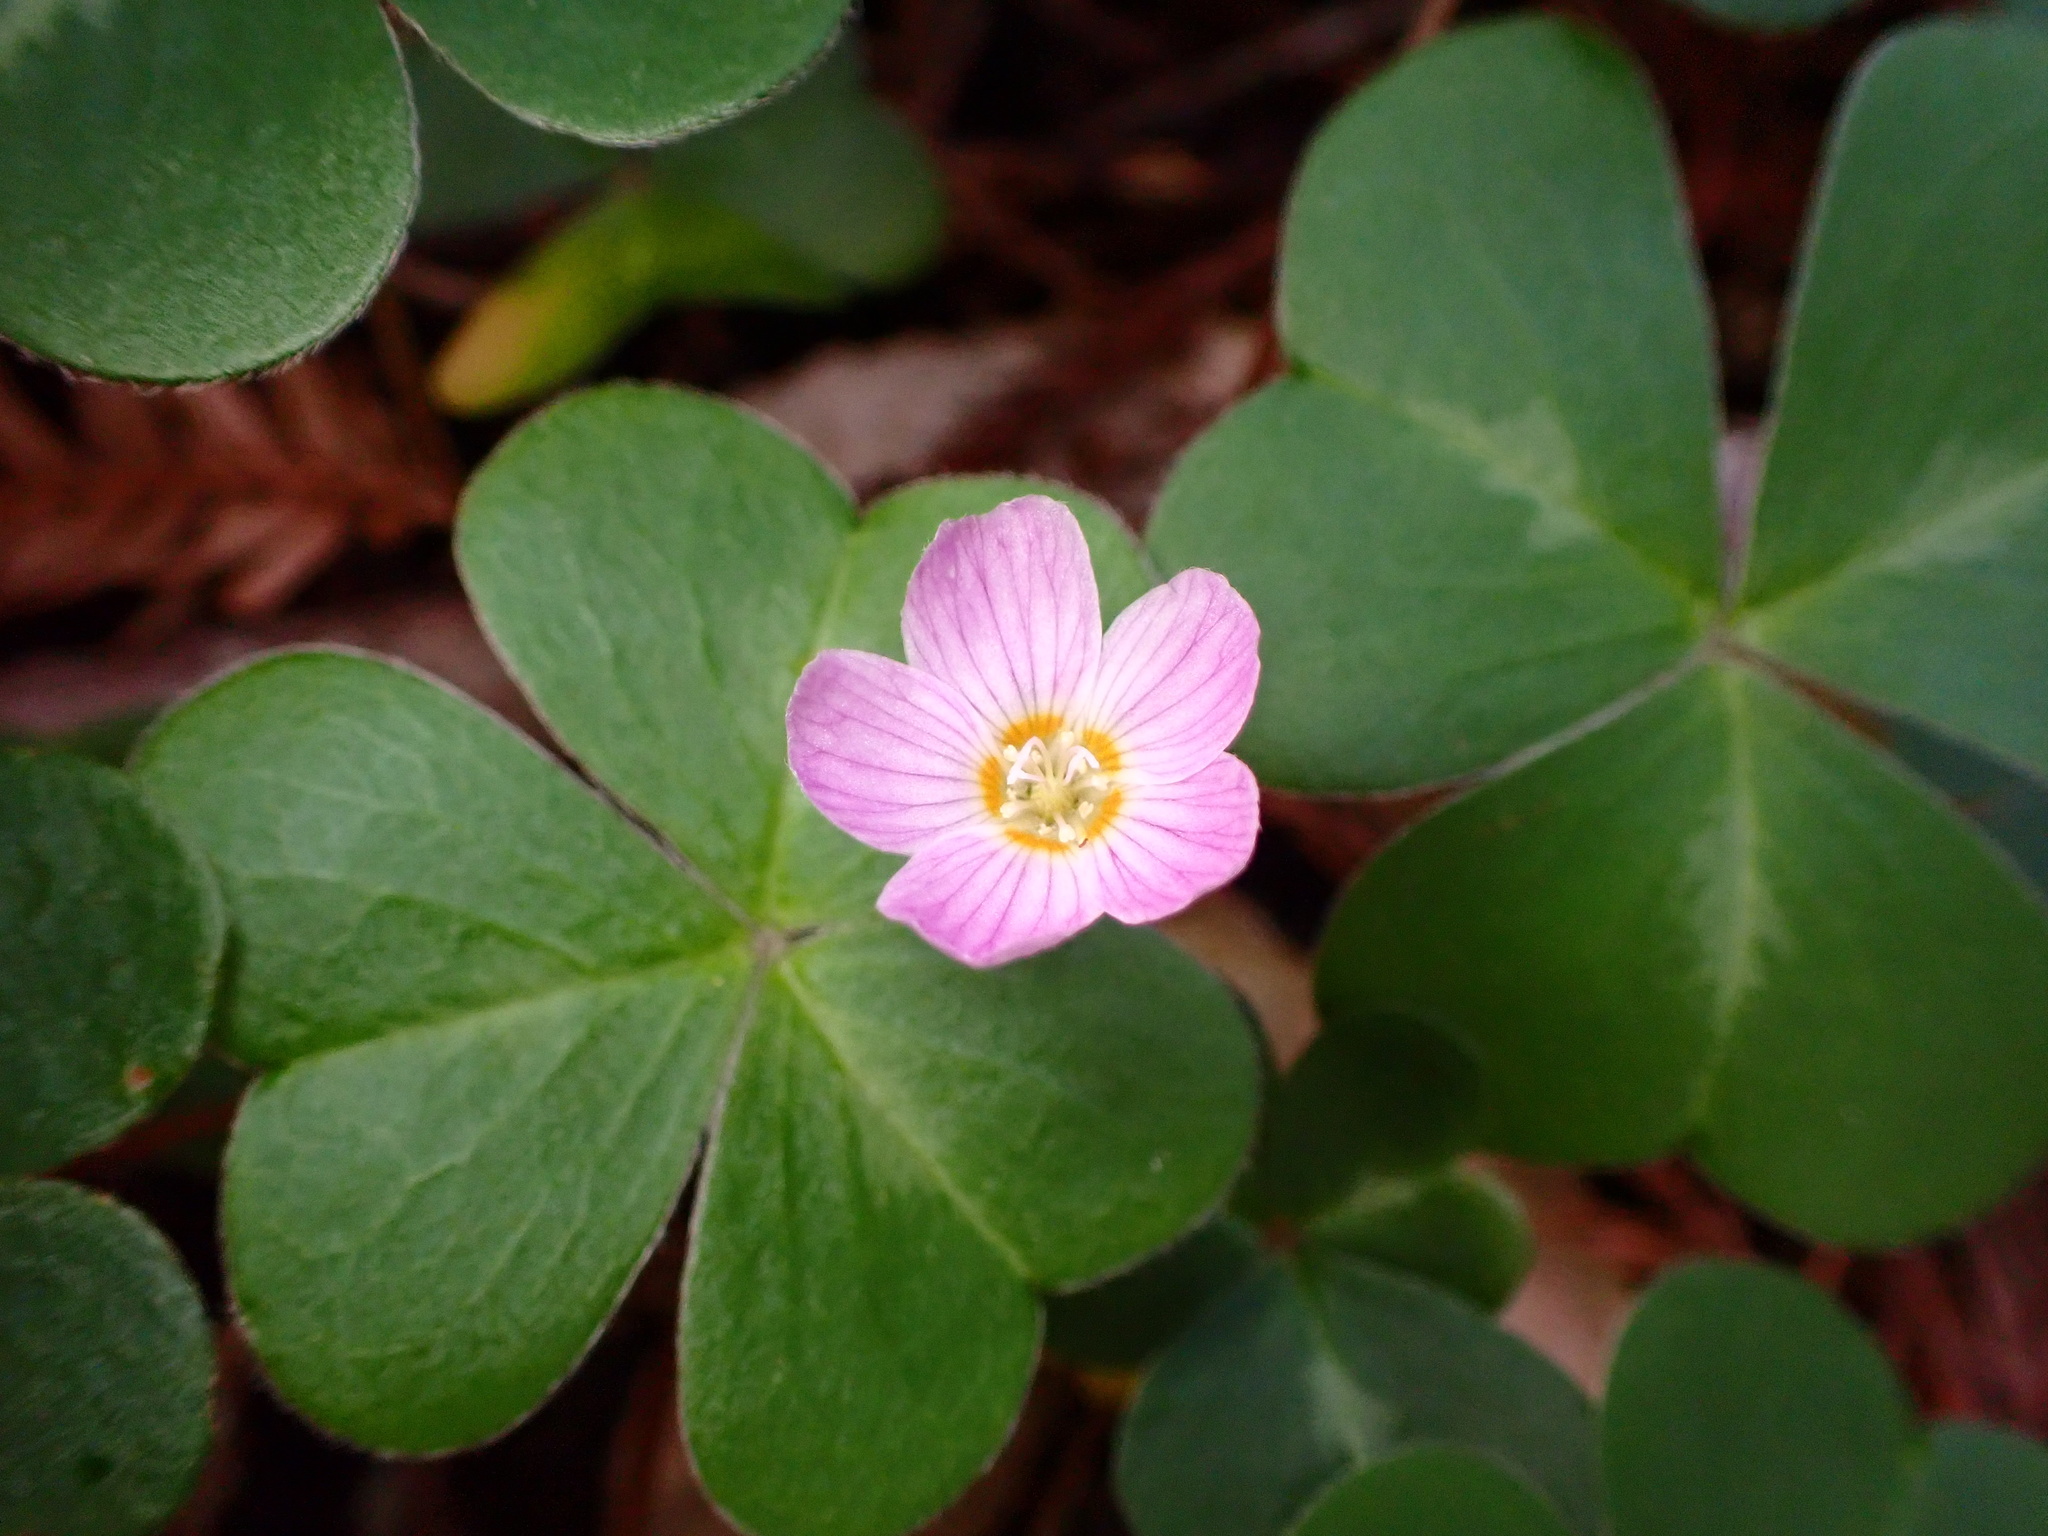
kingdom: Plantae
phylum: Tracheophyta
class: Magnoliopsida
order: Oxalidales
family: Oxalidaceae
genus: Oxalis
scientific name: Oxalis oregana
